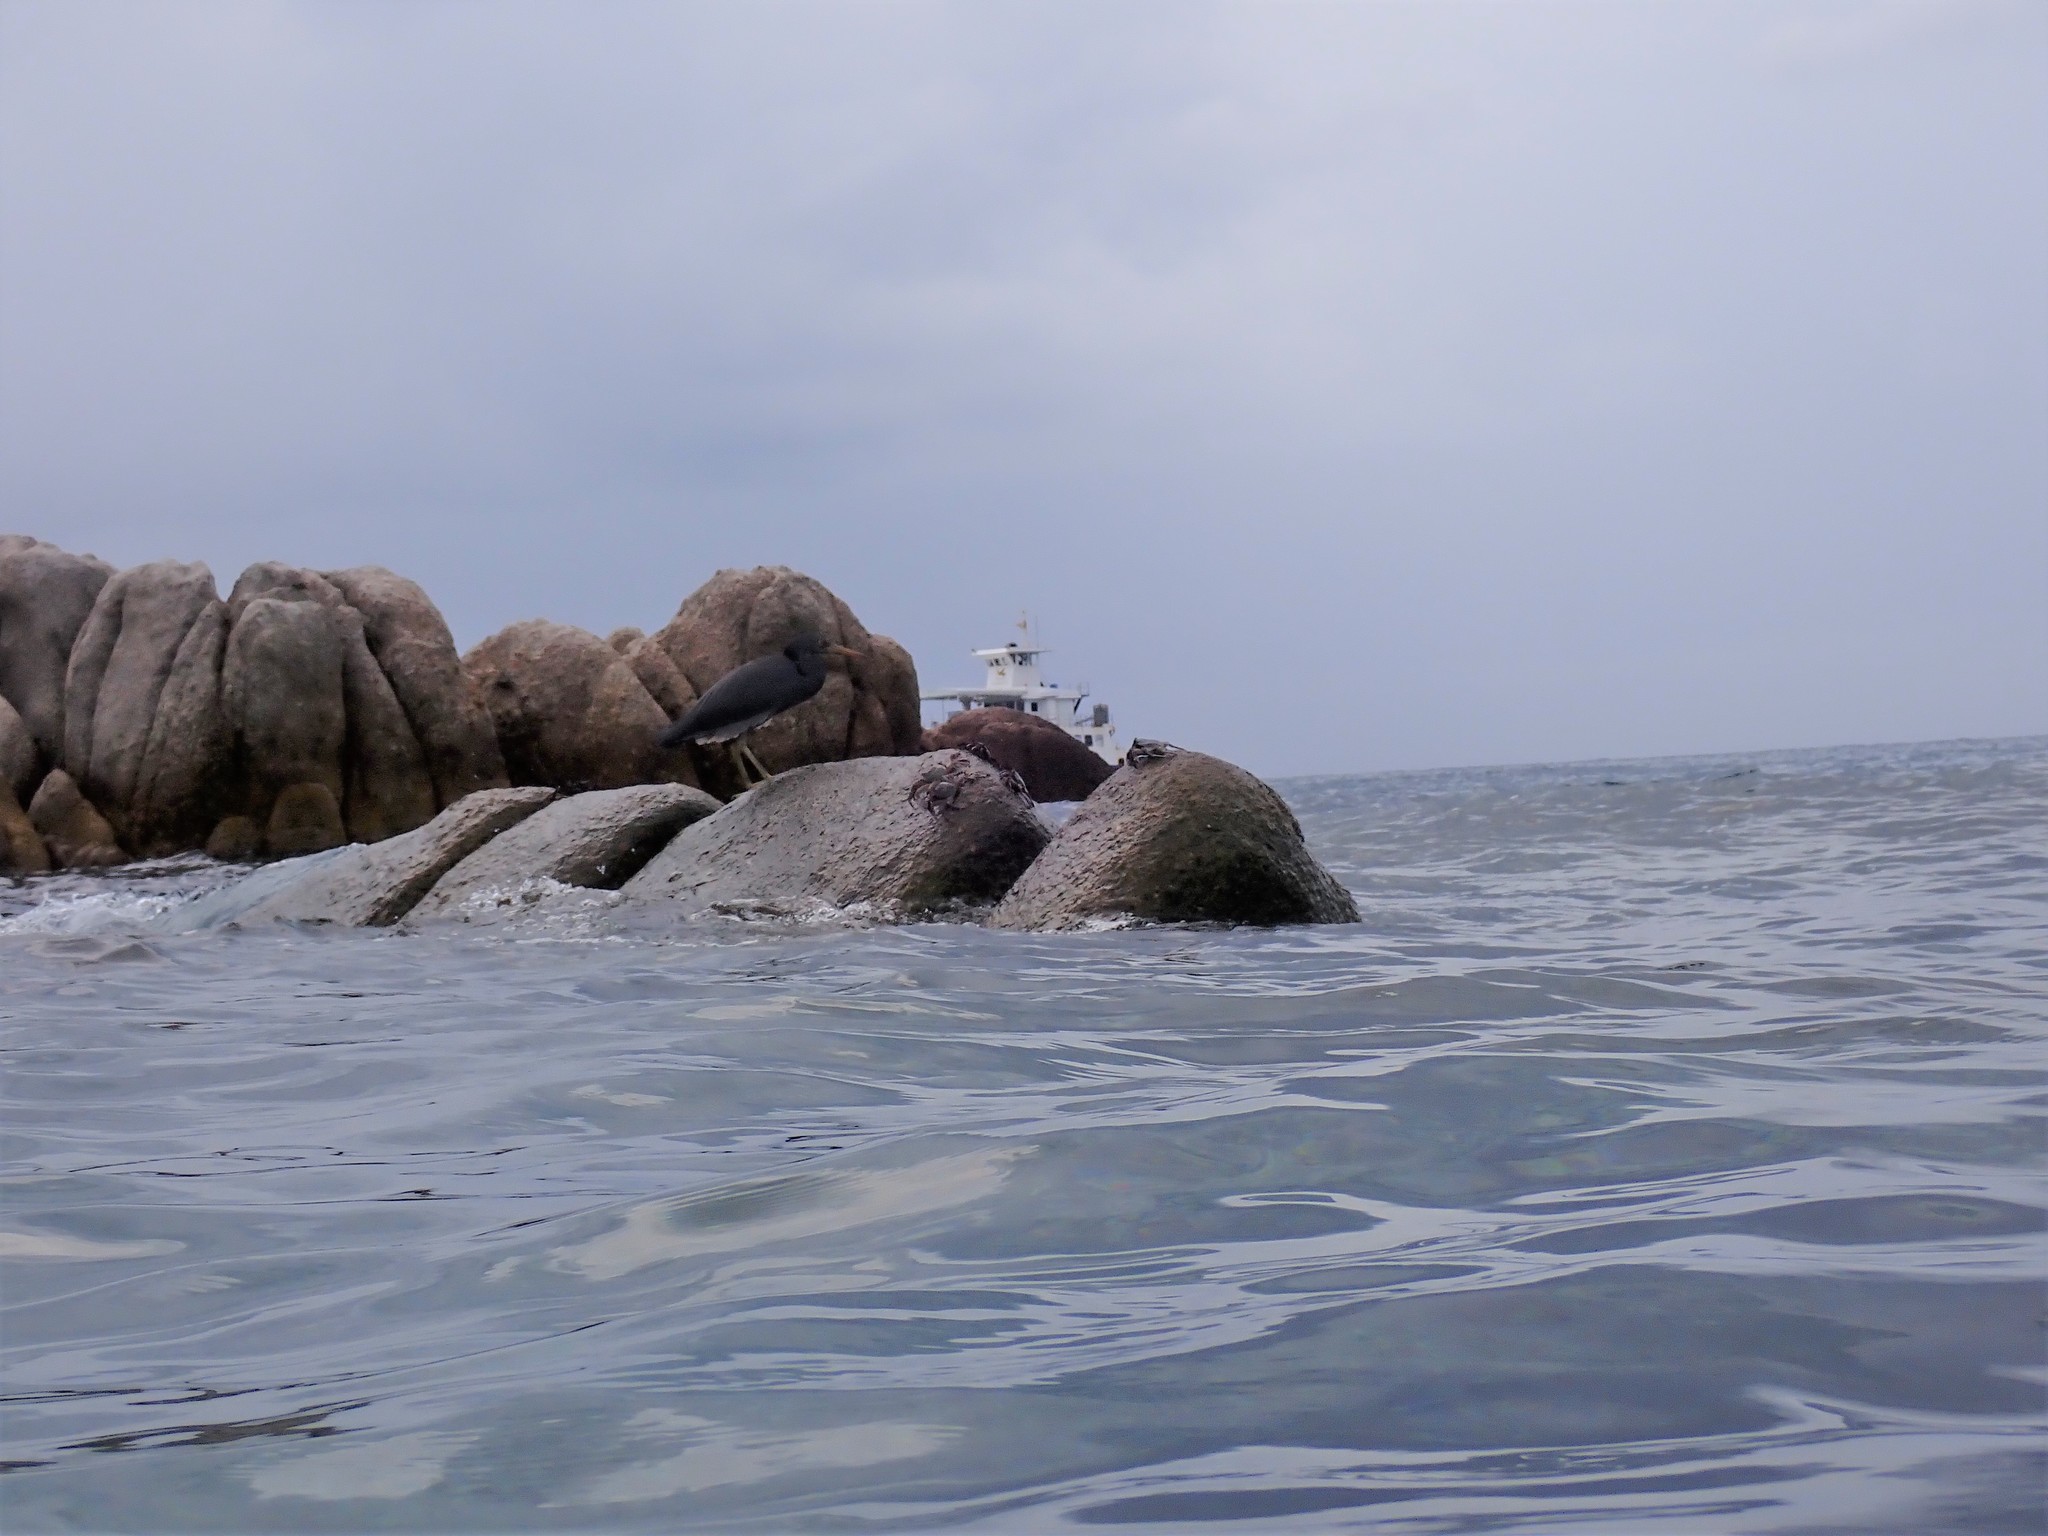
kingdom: Animalia
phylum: Chordata
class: Aves
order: Pelecaniformes
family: Ardeidae
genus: Egretta
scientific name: Egretta sacra
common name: Pacific reef heron
